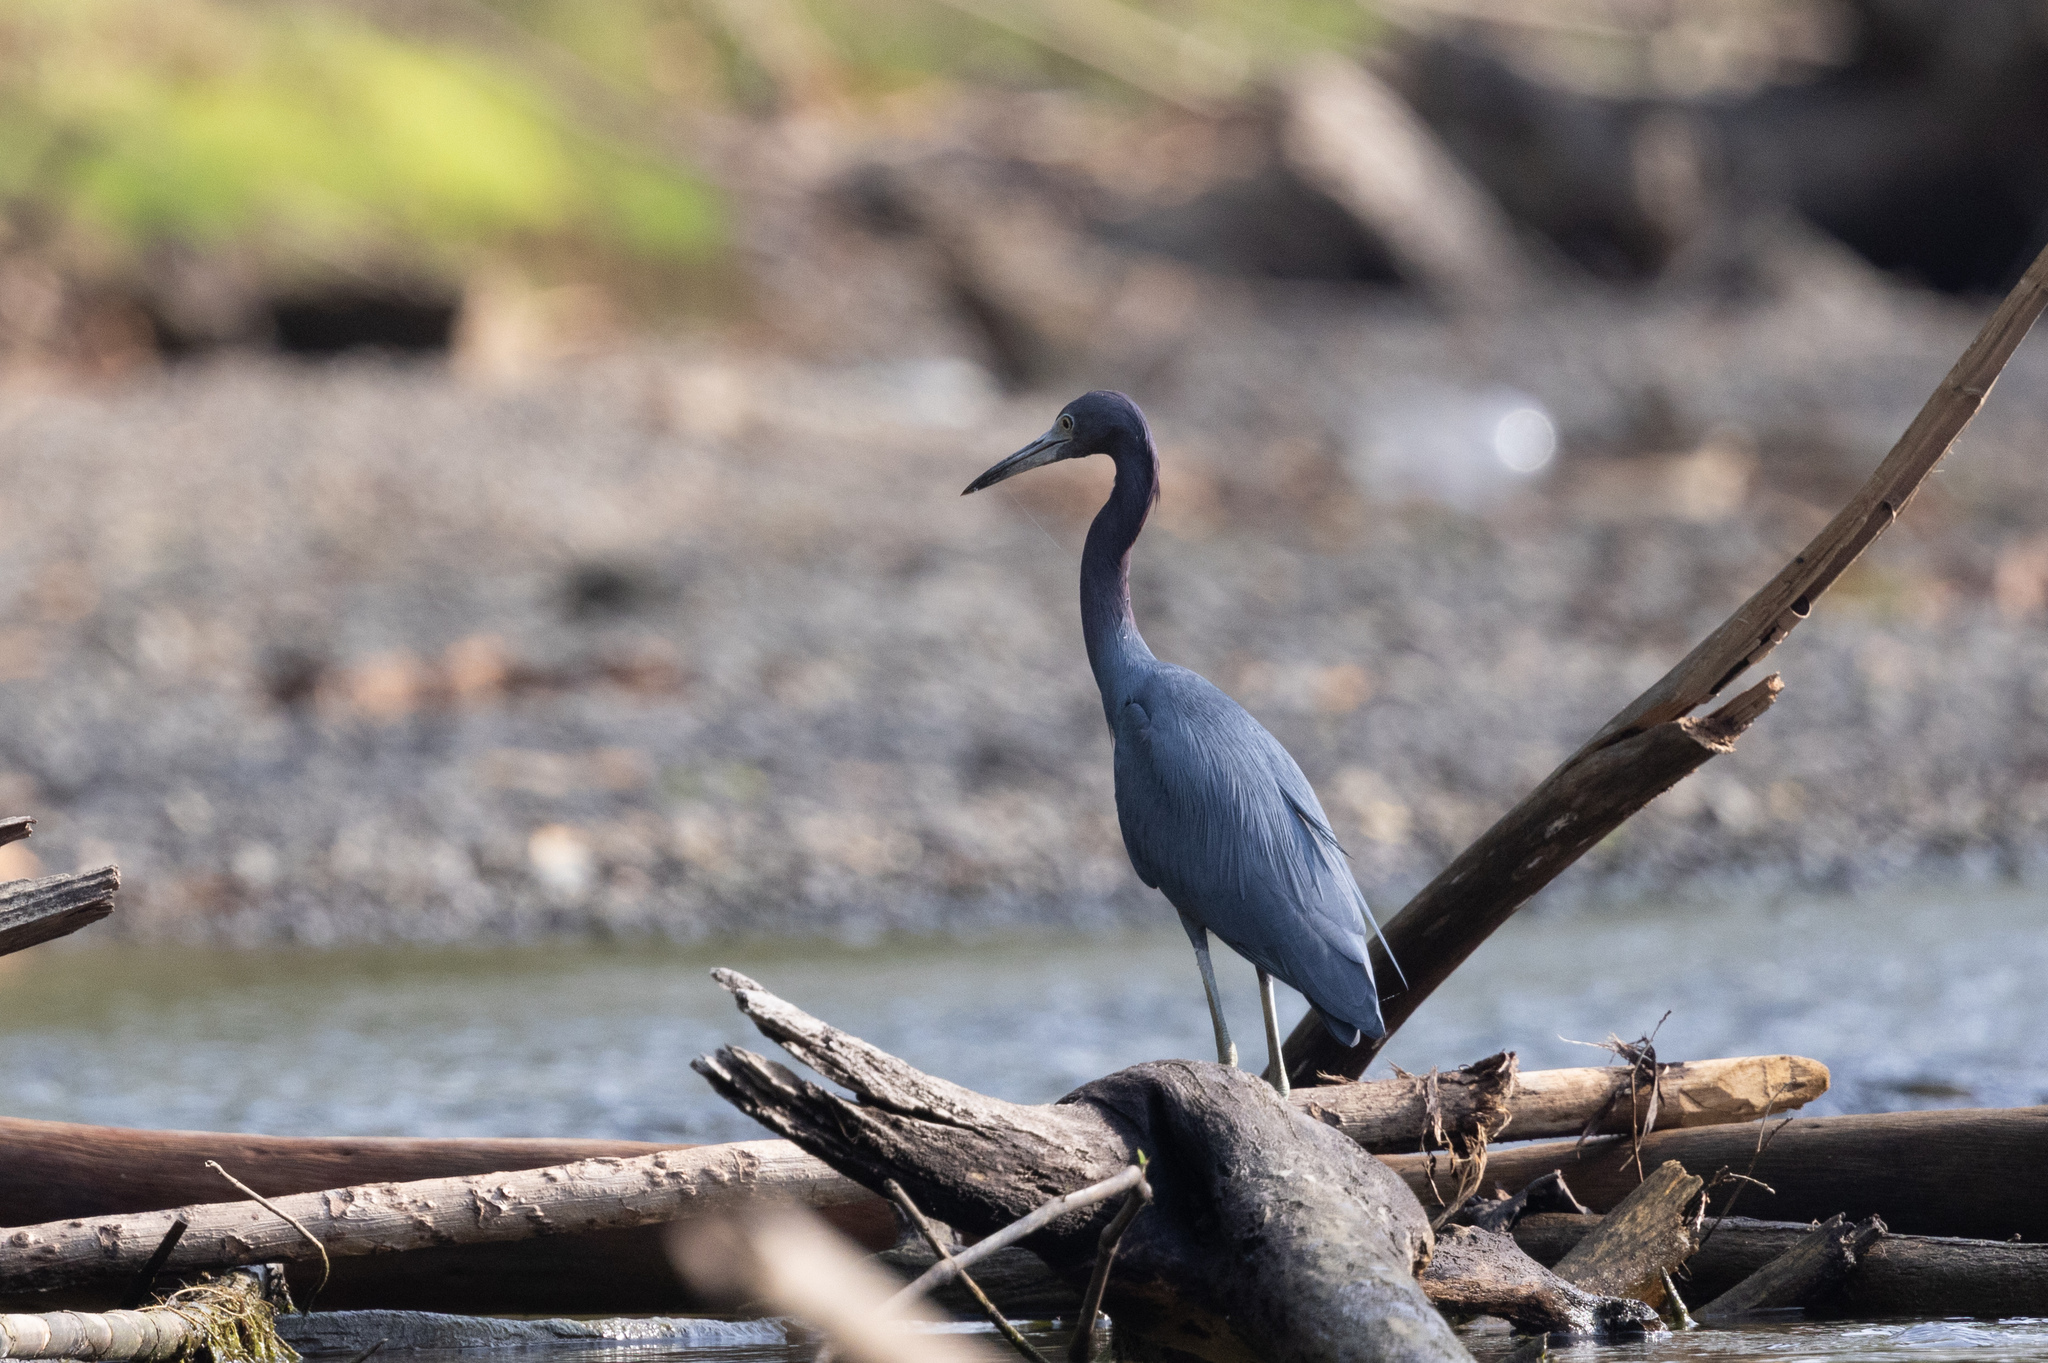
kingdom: Animalia
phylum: Chordata
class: Aves
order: Pelecaniformes
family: Ardeidae
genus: Egretta
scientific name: Egretta caerulea
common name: Little blue heron
